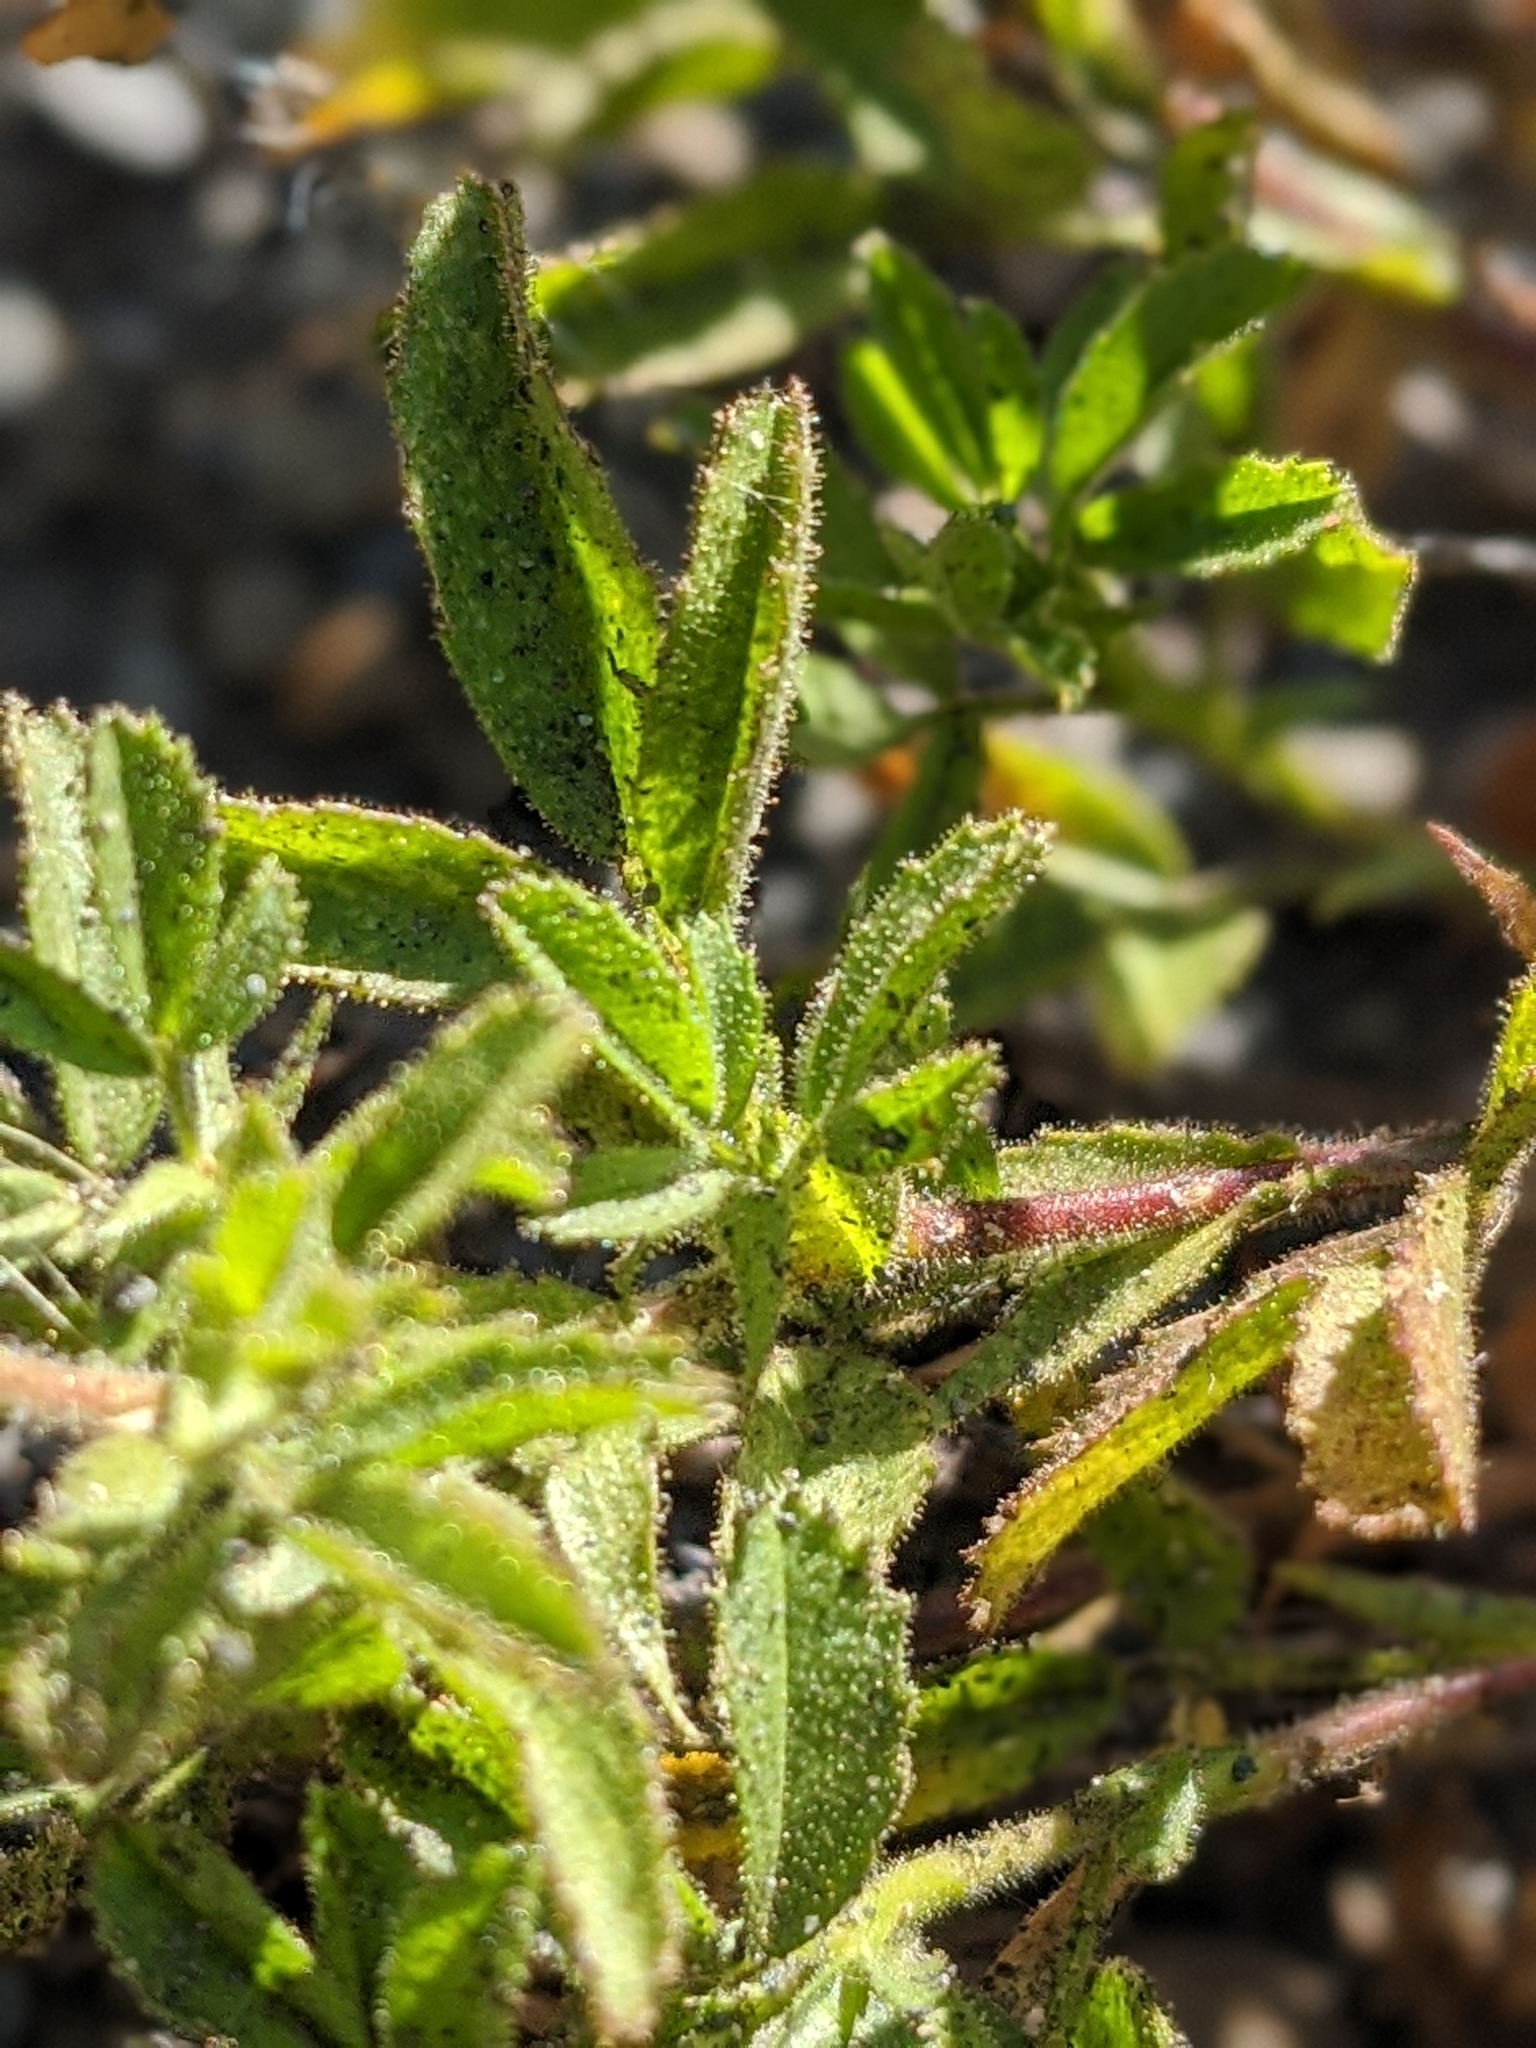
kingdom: Plantae
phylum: Tracheophyta
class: Magnoliopsida
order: Fabales
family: Fabaceae
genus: Ononis
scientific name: Ononis natrix
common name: Yellow restharrow
